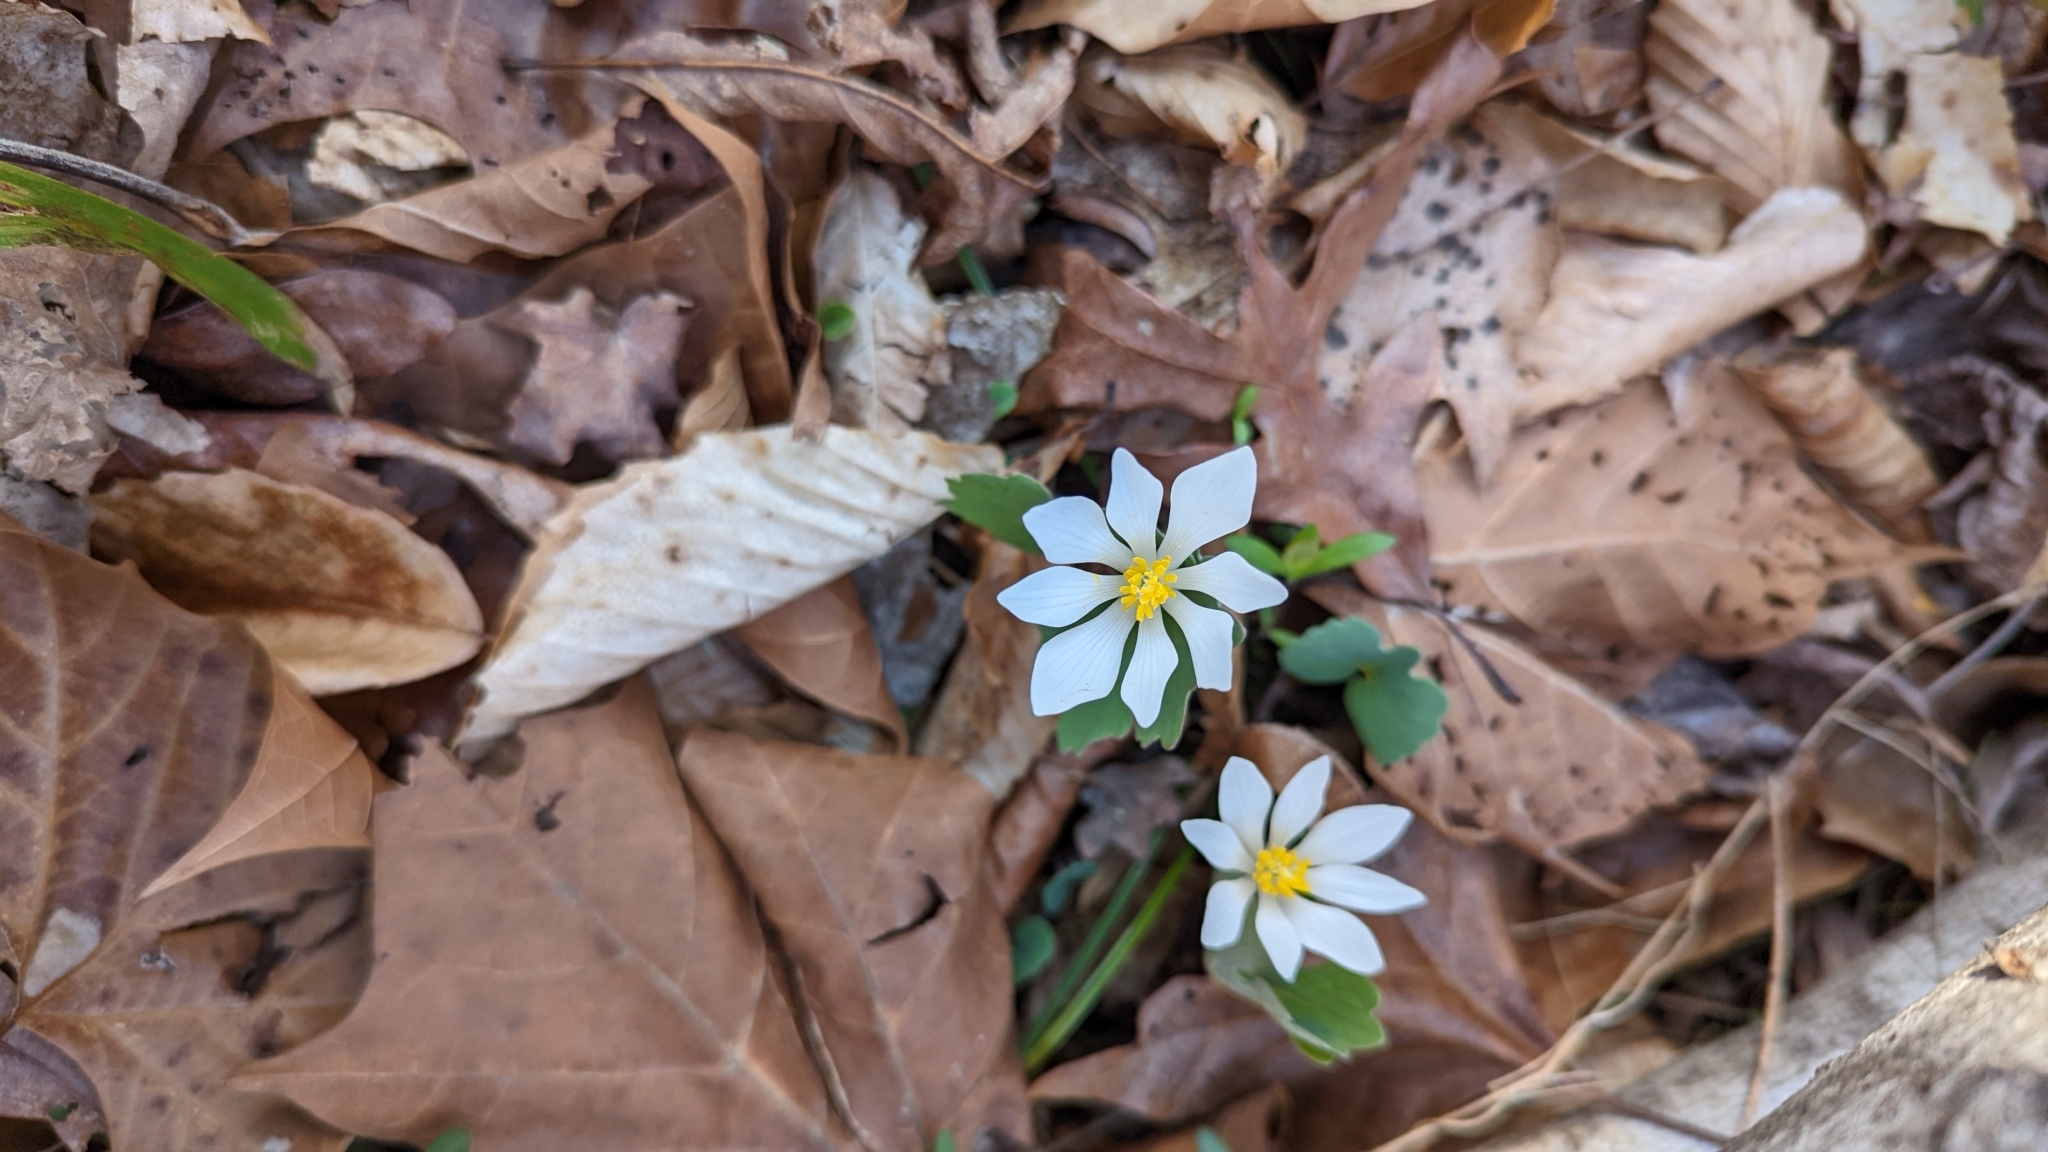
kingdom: Plantae
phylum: Tracheophyta
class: Magnoliopsida
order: Ranunculales
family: Papaveraceae
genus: Sanguinaria
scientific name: Sanguinaria canadensis
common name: Bloodroot
